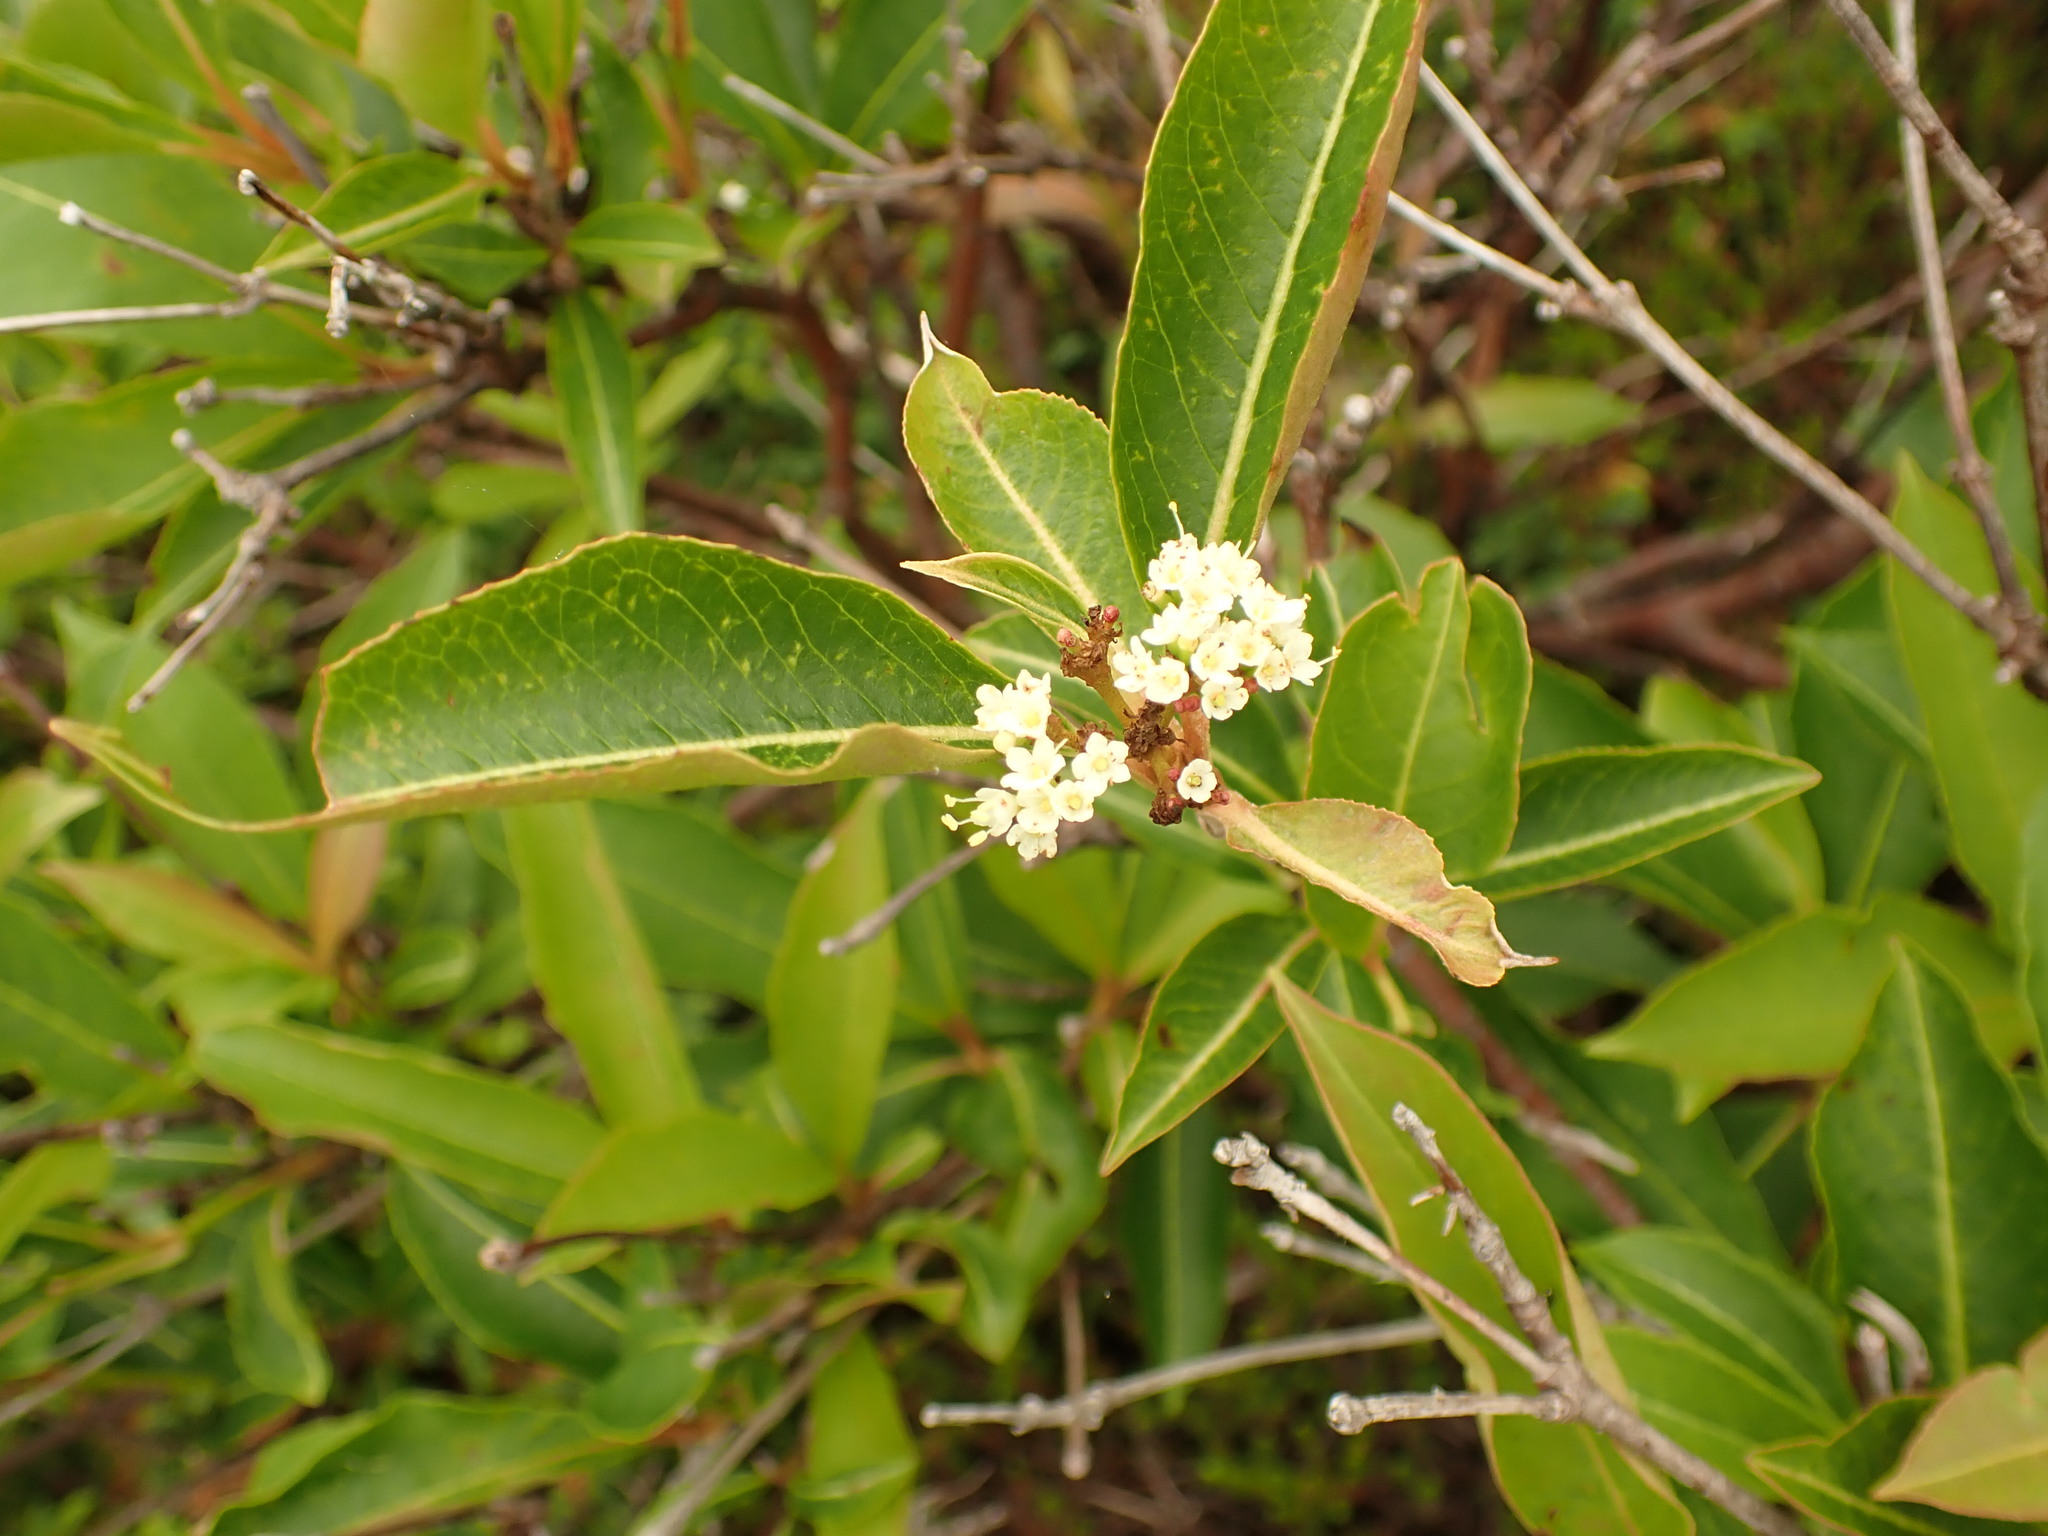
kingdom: Plantae
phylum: Tracheophyta
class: Magnoliopsida
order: Dipsacales
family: Viburnaceae
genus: Viburnum
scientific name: Viburnum cassinoides
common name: Swamp haw
